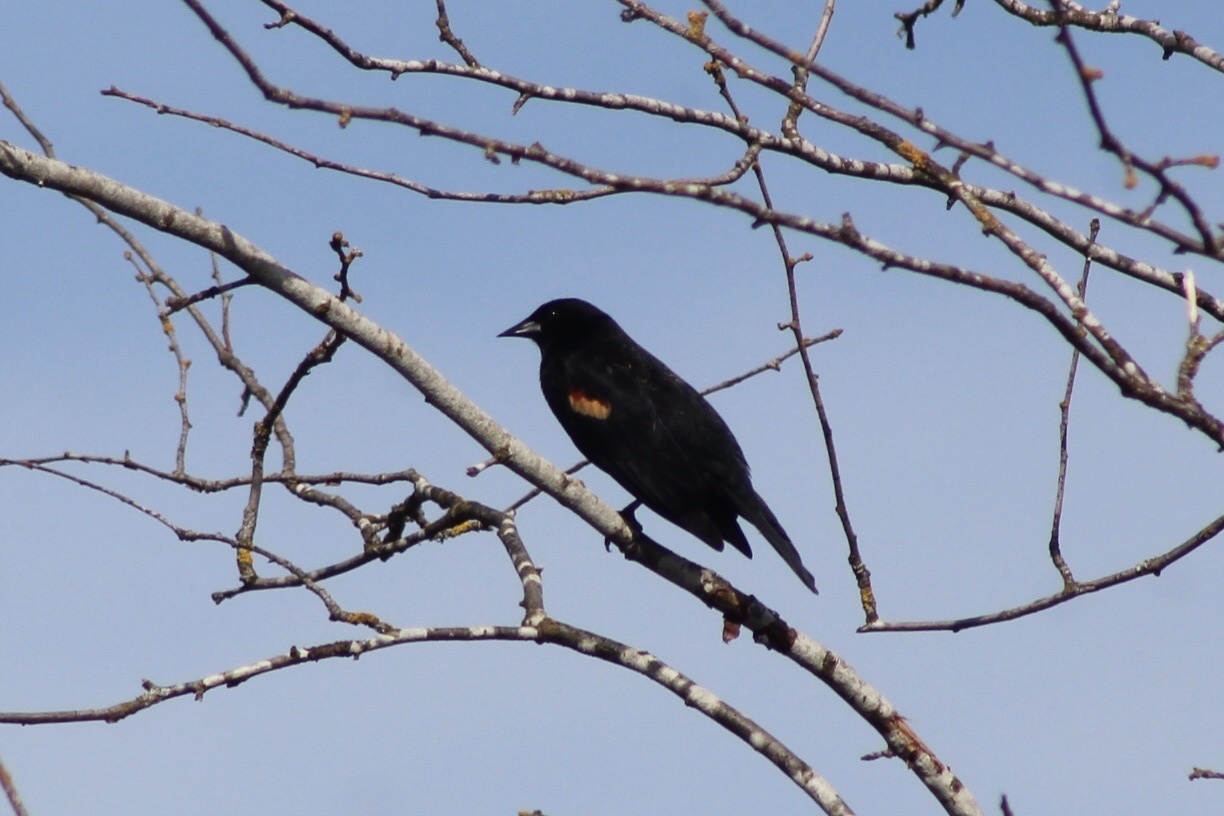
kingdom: Animalia
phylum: Chordata
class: Aves
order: Passeriformes
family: Icteridae
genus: Agelaius
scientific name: Agelaius phoeniceus
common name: Red-winged blackbird
